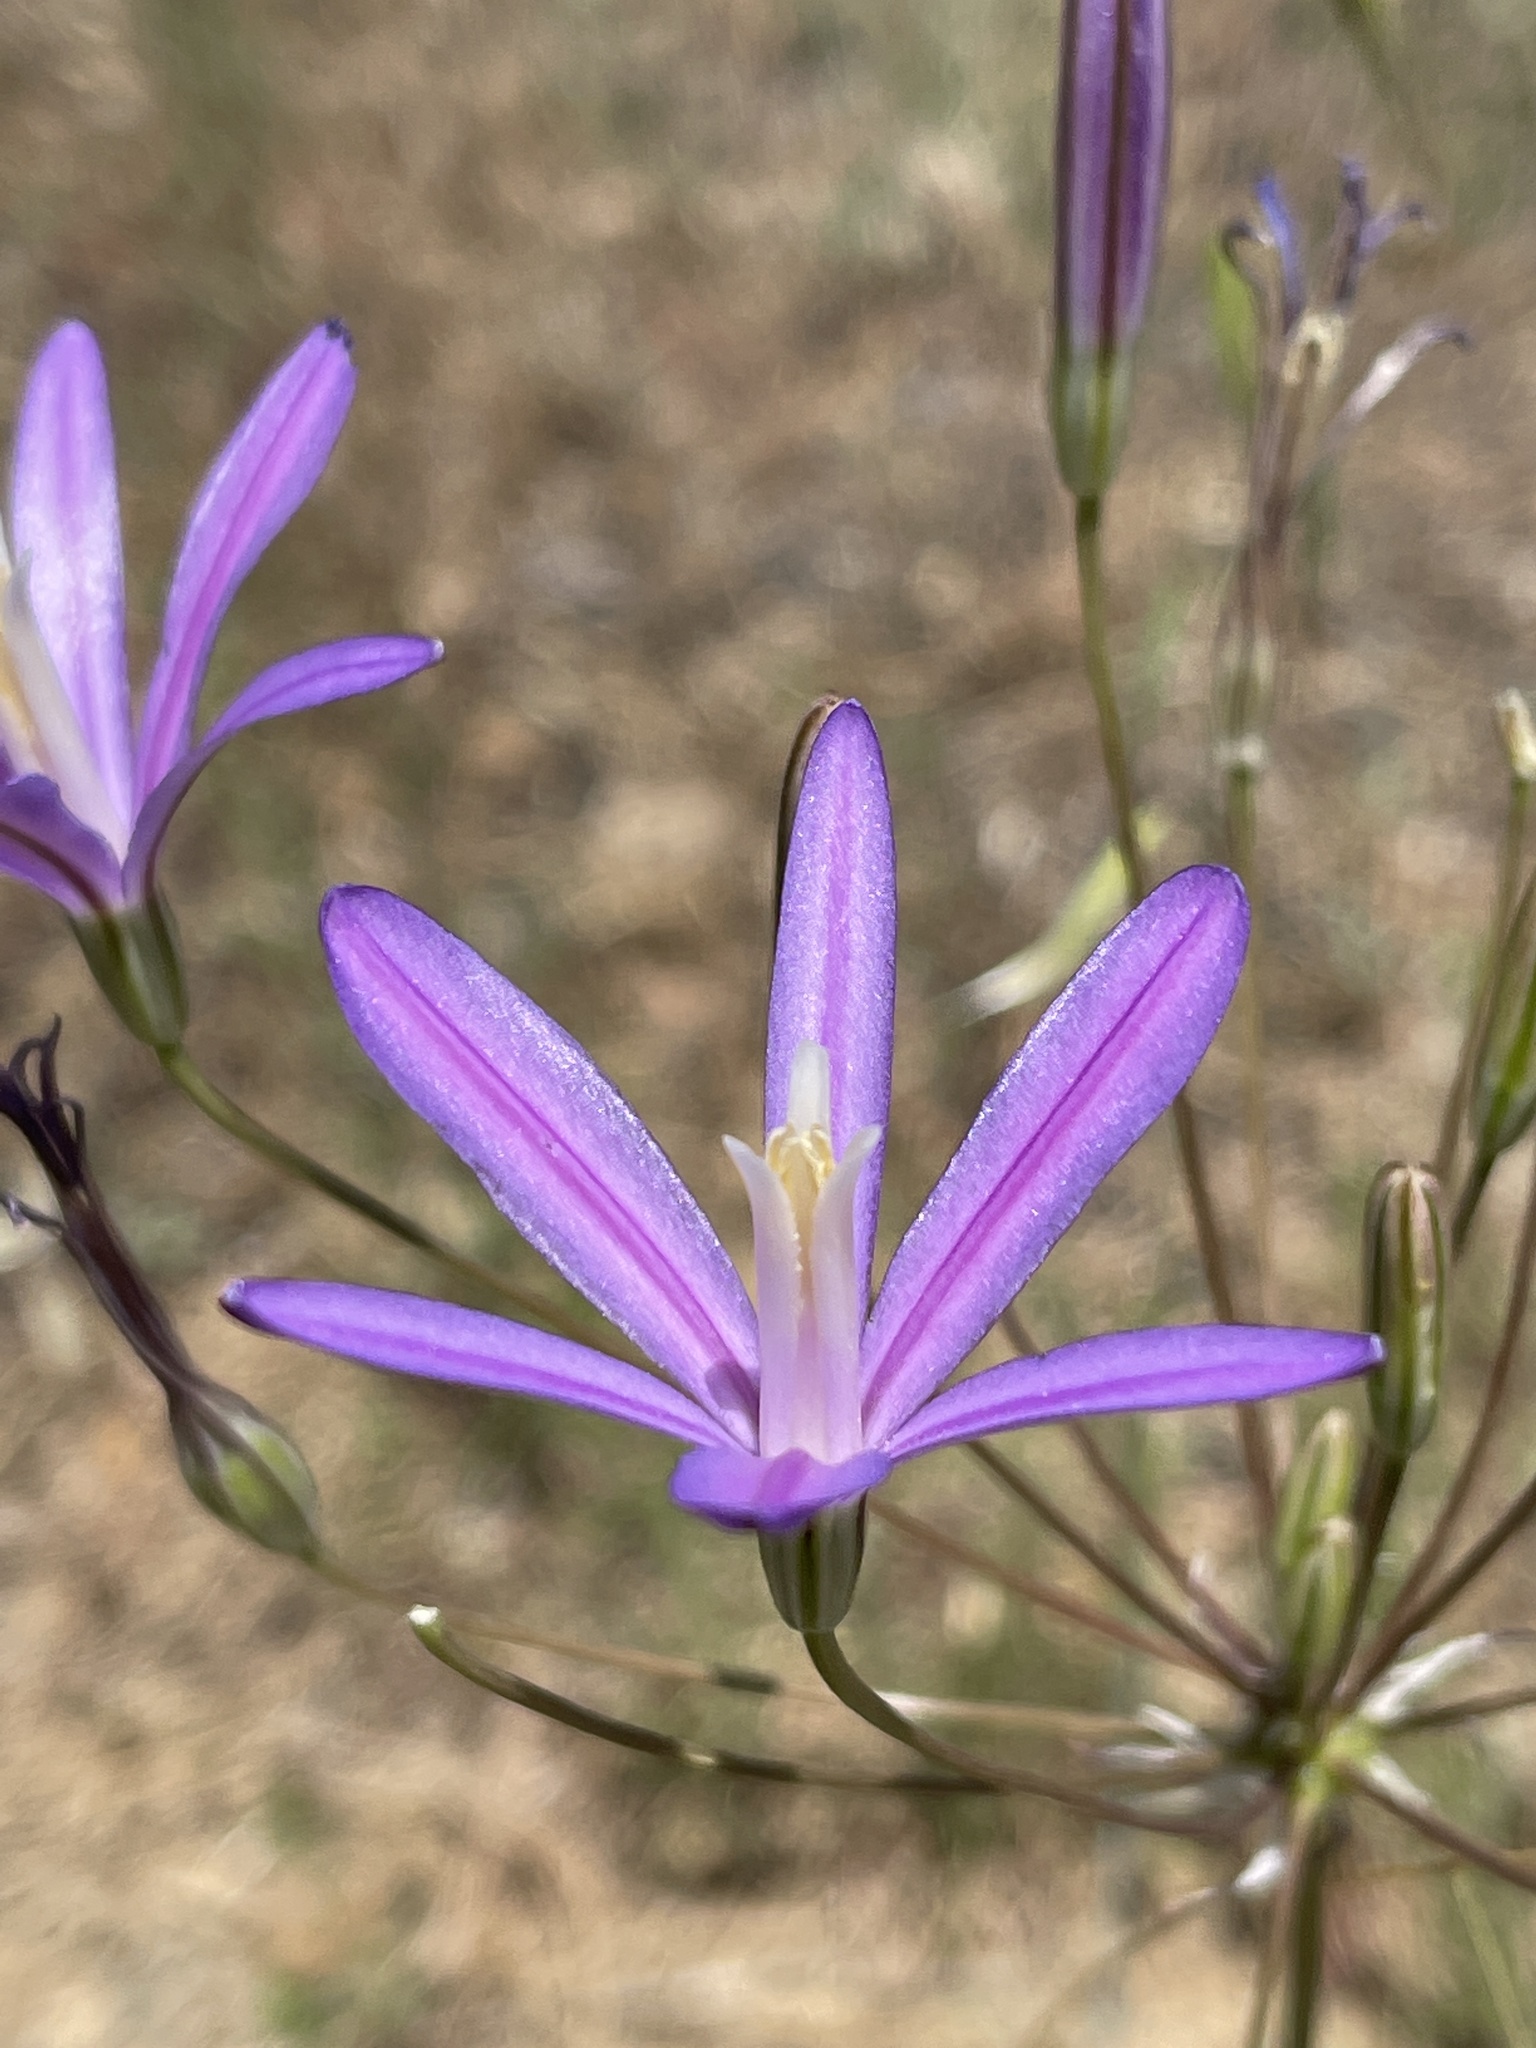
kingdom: Plantae
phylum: Tracheophyta
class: Liliopsida
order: Asparagales
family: Asparagaceae
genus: Brodiaea
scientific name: Brodiaea californica
